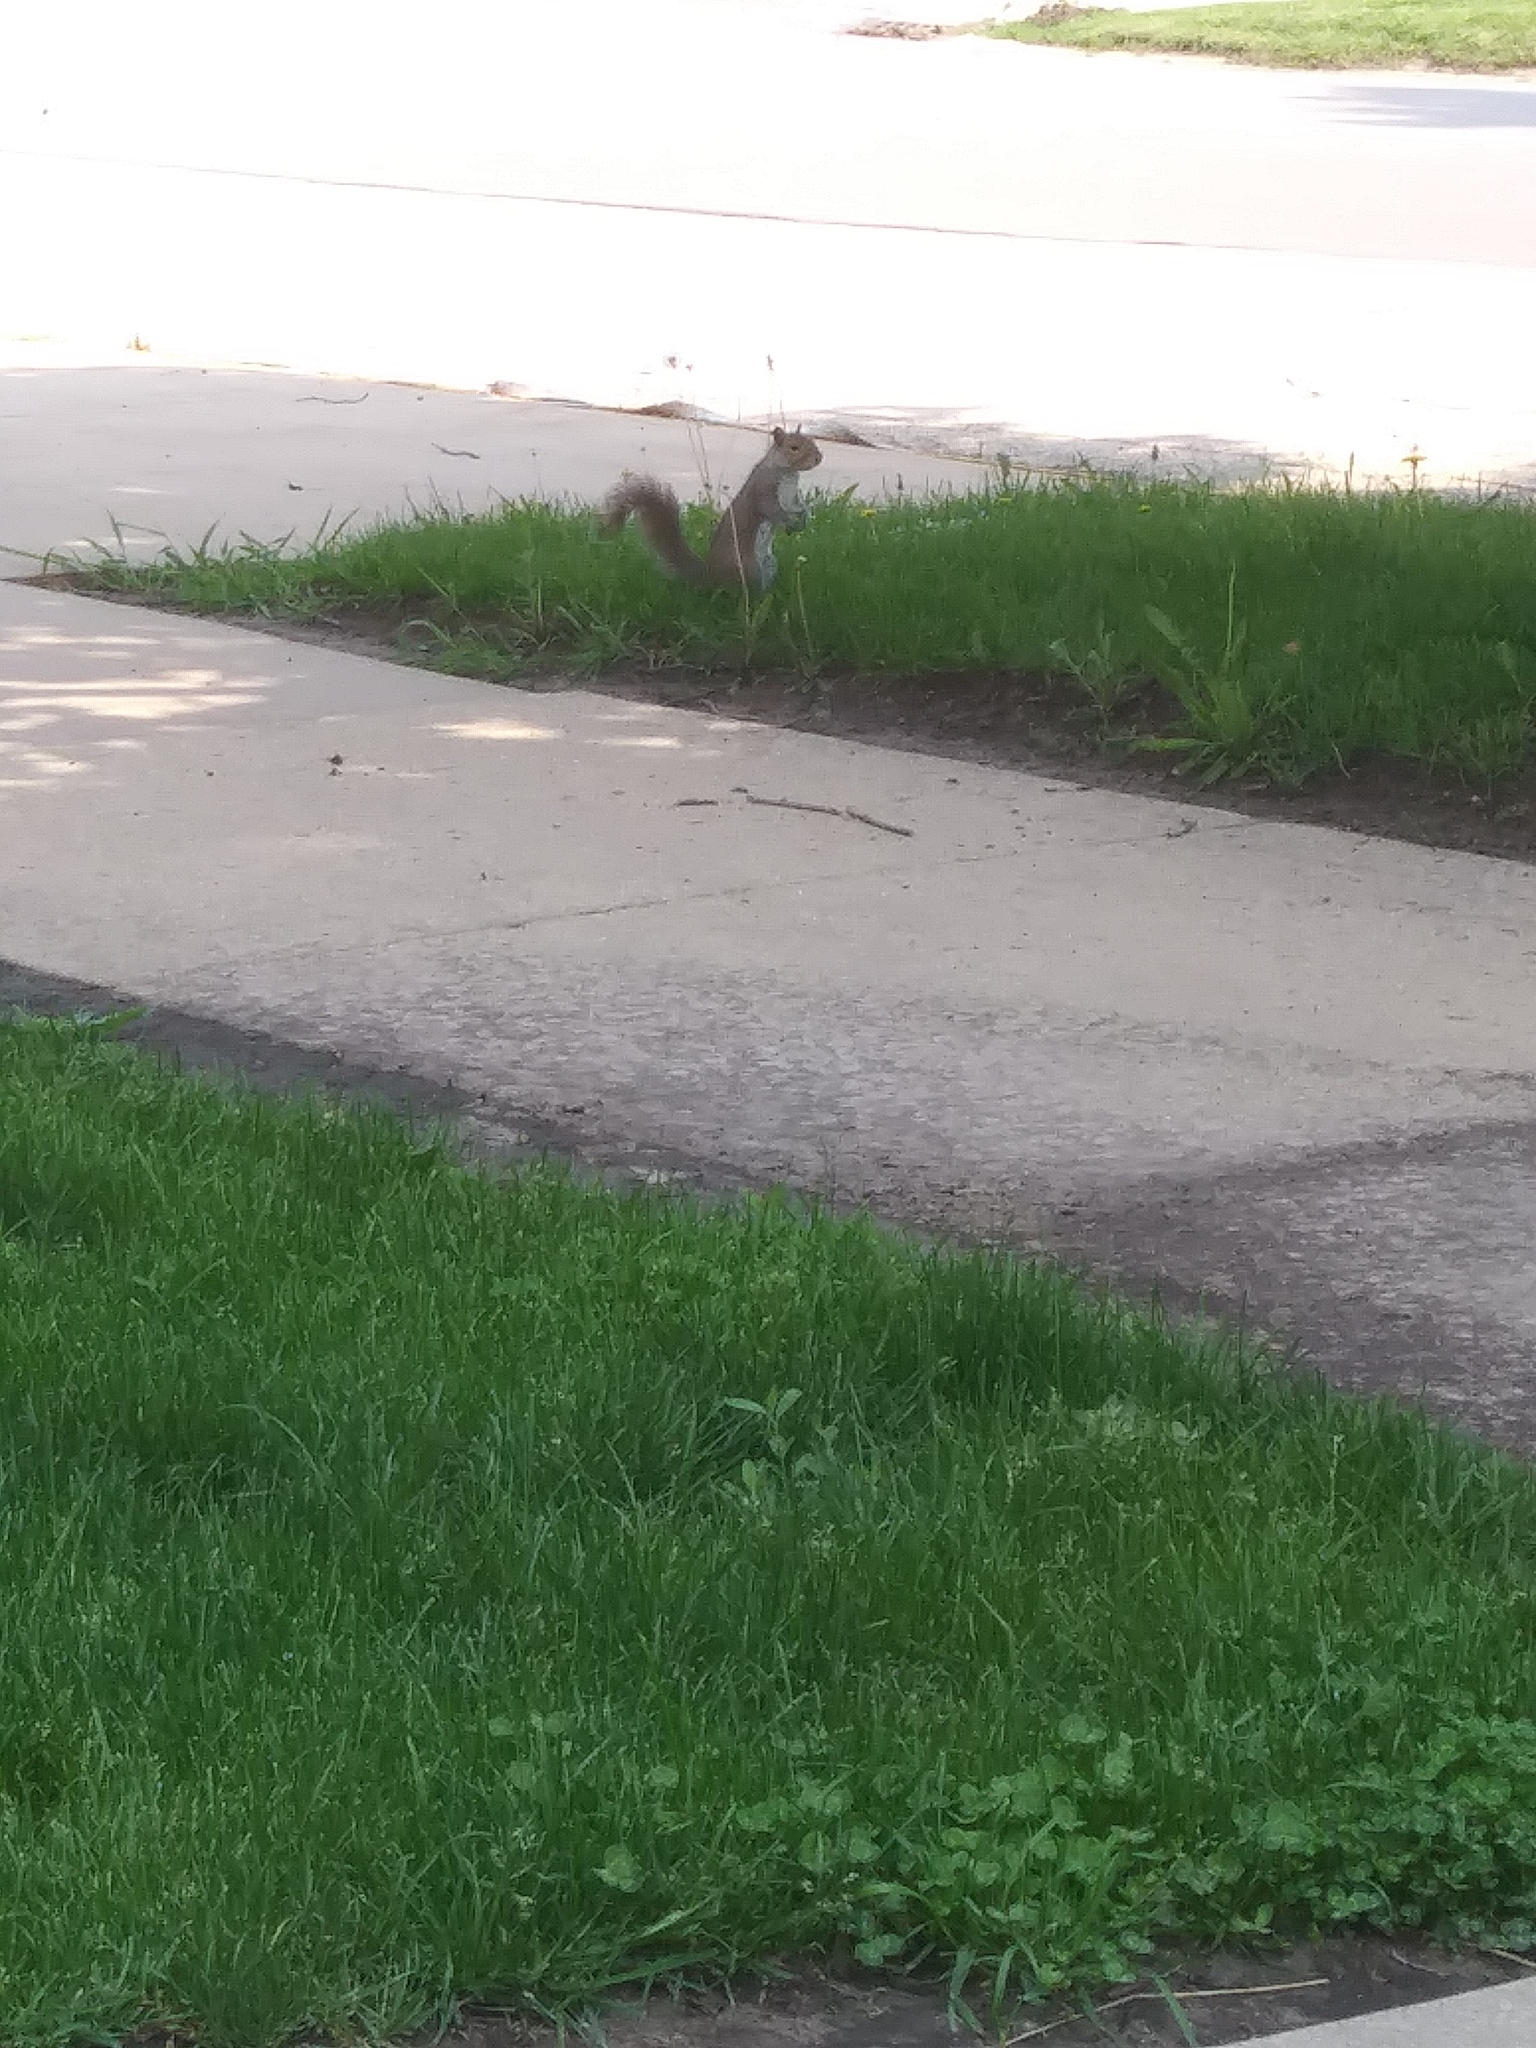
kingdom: Animalia
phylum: Chordata
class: Mammalia
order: Rodentia
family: Sciuridae
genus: Sciurus
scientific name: Sciurus carolinensis
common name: Eastern gray squirrel
